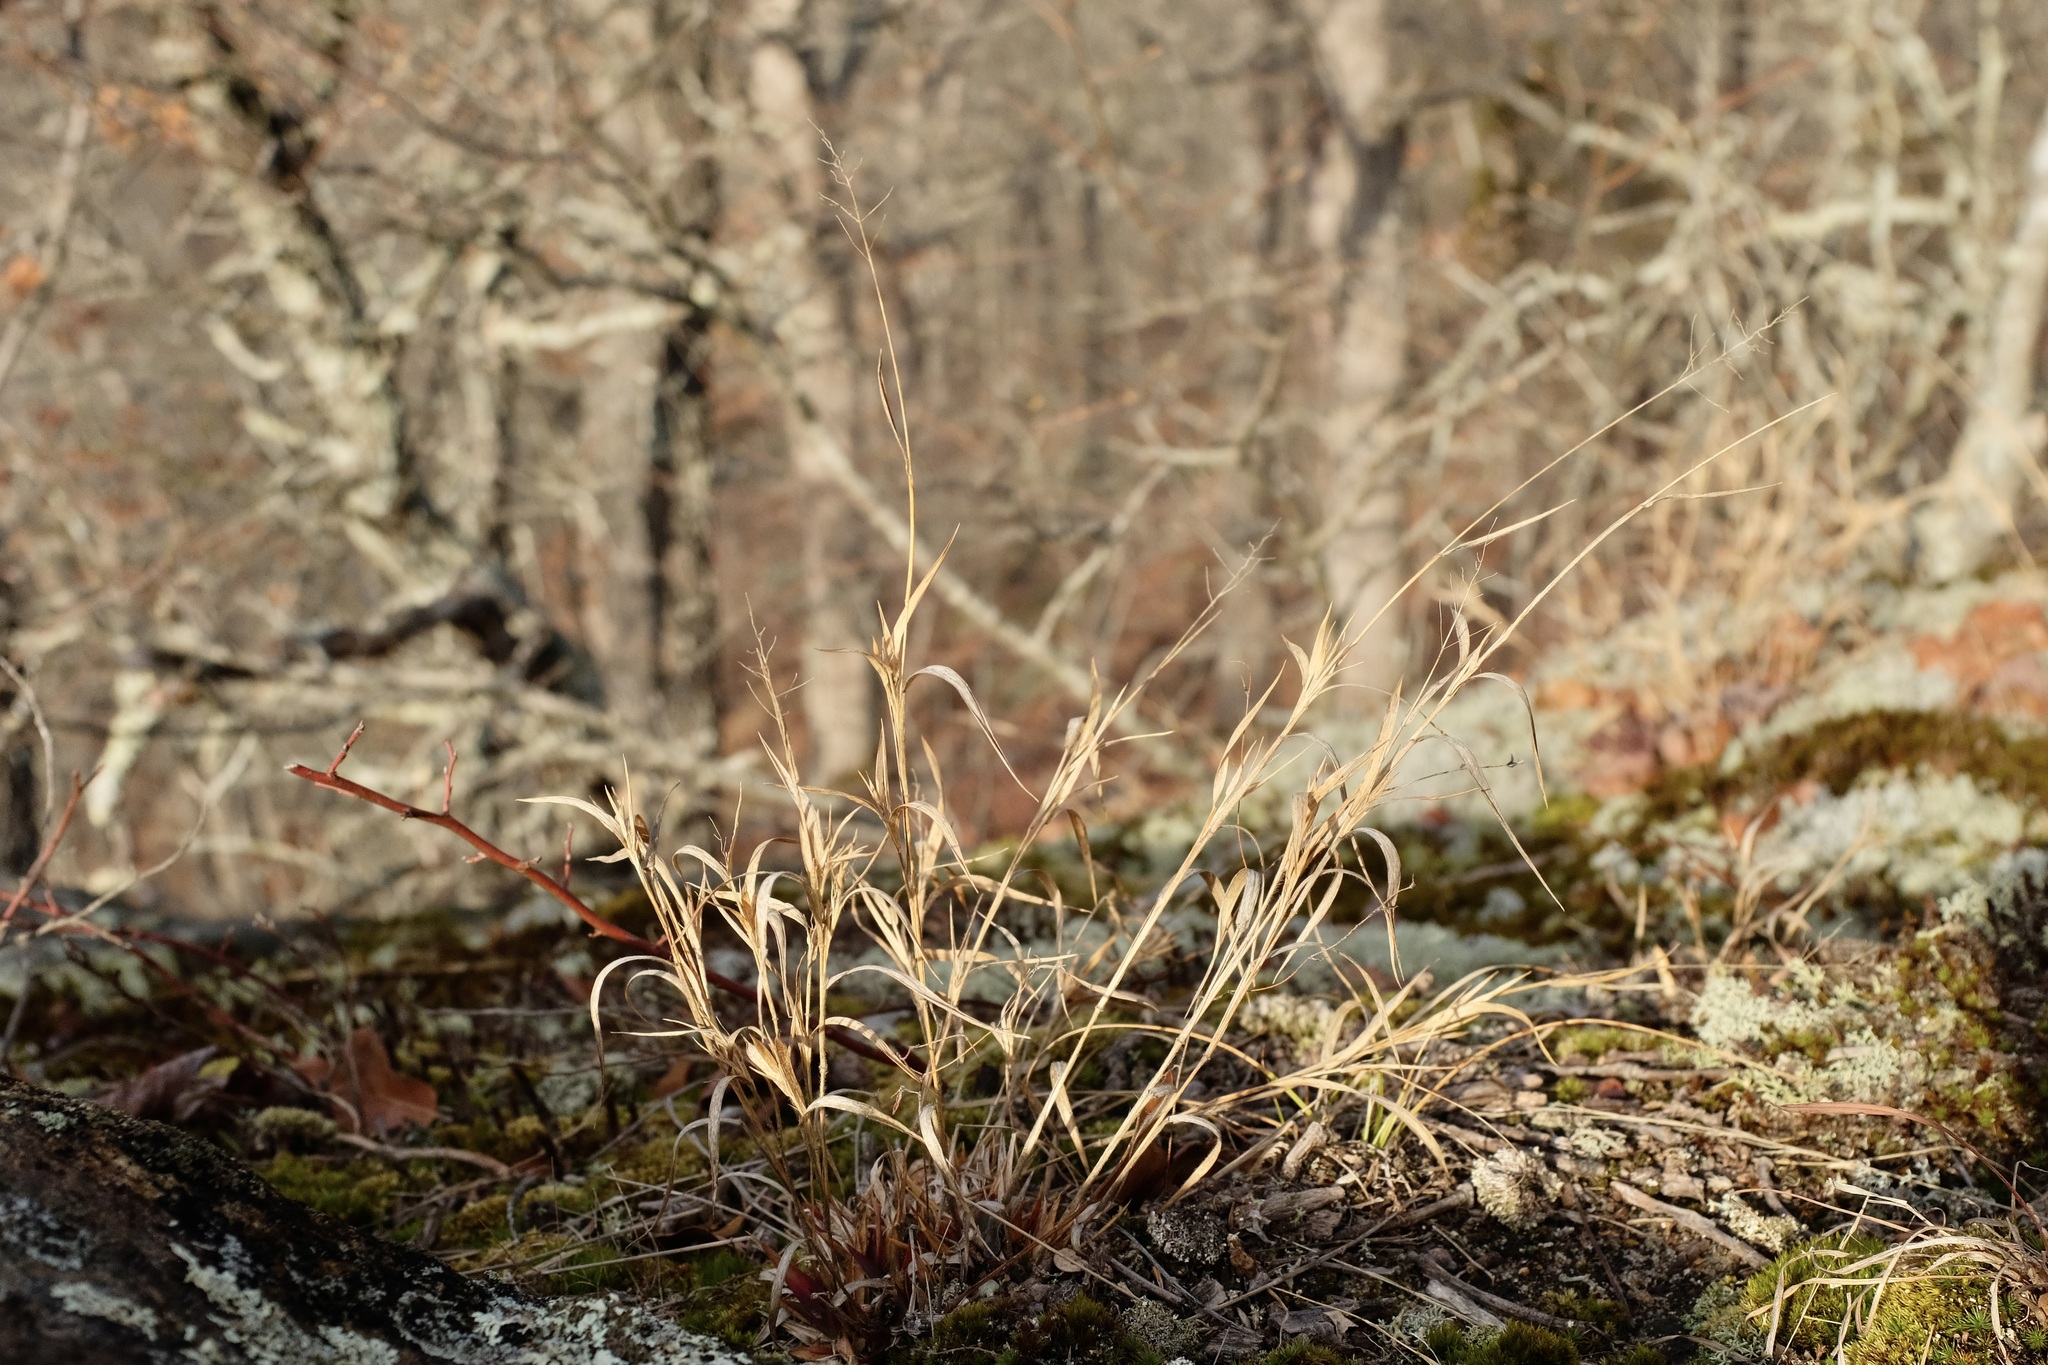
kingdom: Plantae
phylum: Tracheophyta
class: Liliopsida
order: Poales
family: Poaceae
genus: Dichanthelium
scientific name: Dichanthelium implicatum
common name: Slender-stemmed panicgrass
